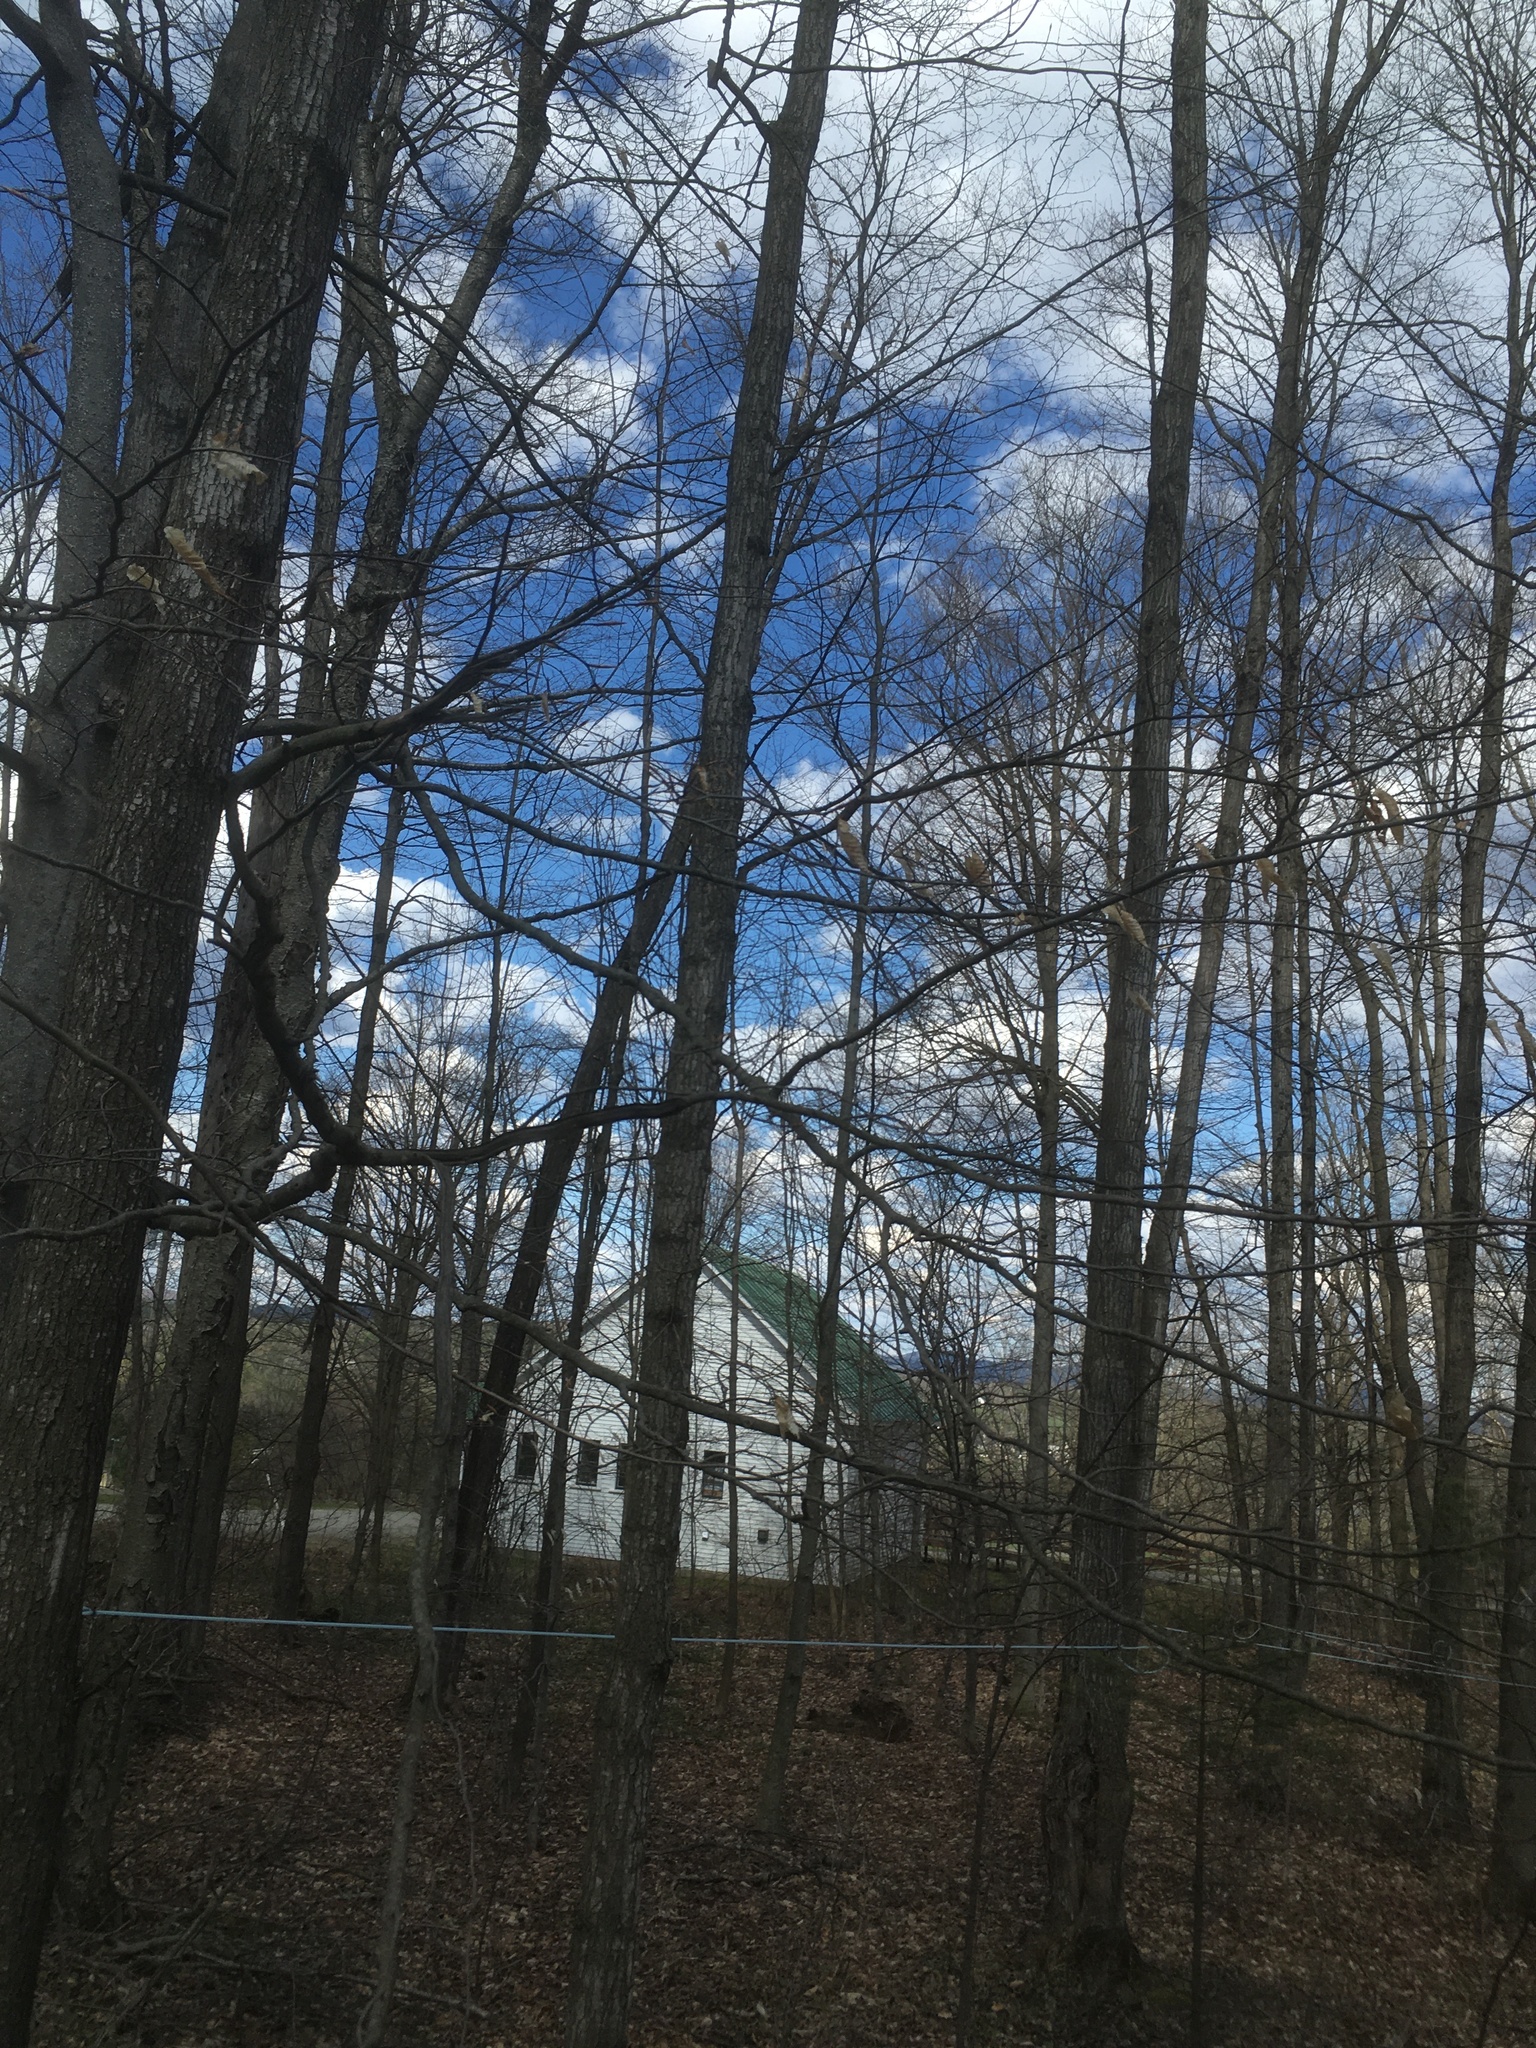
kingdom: Plantae
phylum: Tracheophyta
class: Magnoliopsida
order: Fagales
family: Fagaceae
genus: Fagus
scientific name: Fagus grandifolia
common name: American beech
